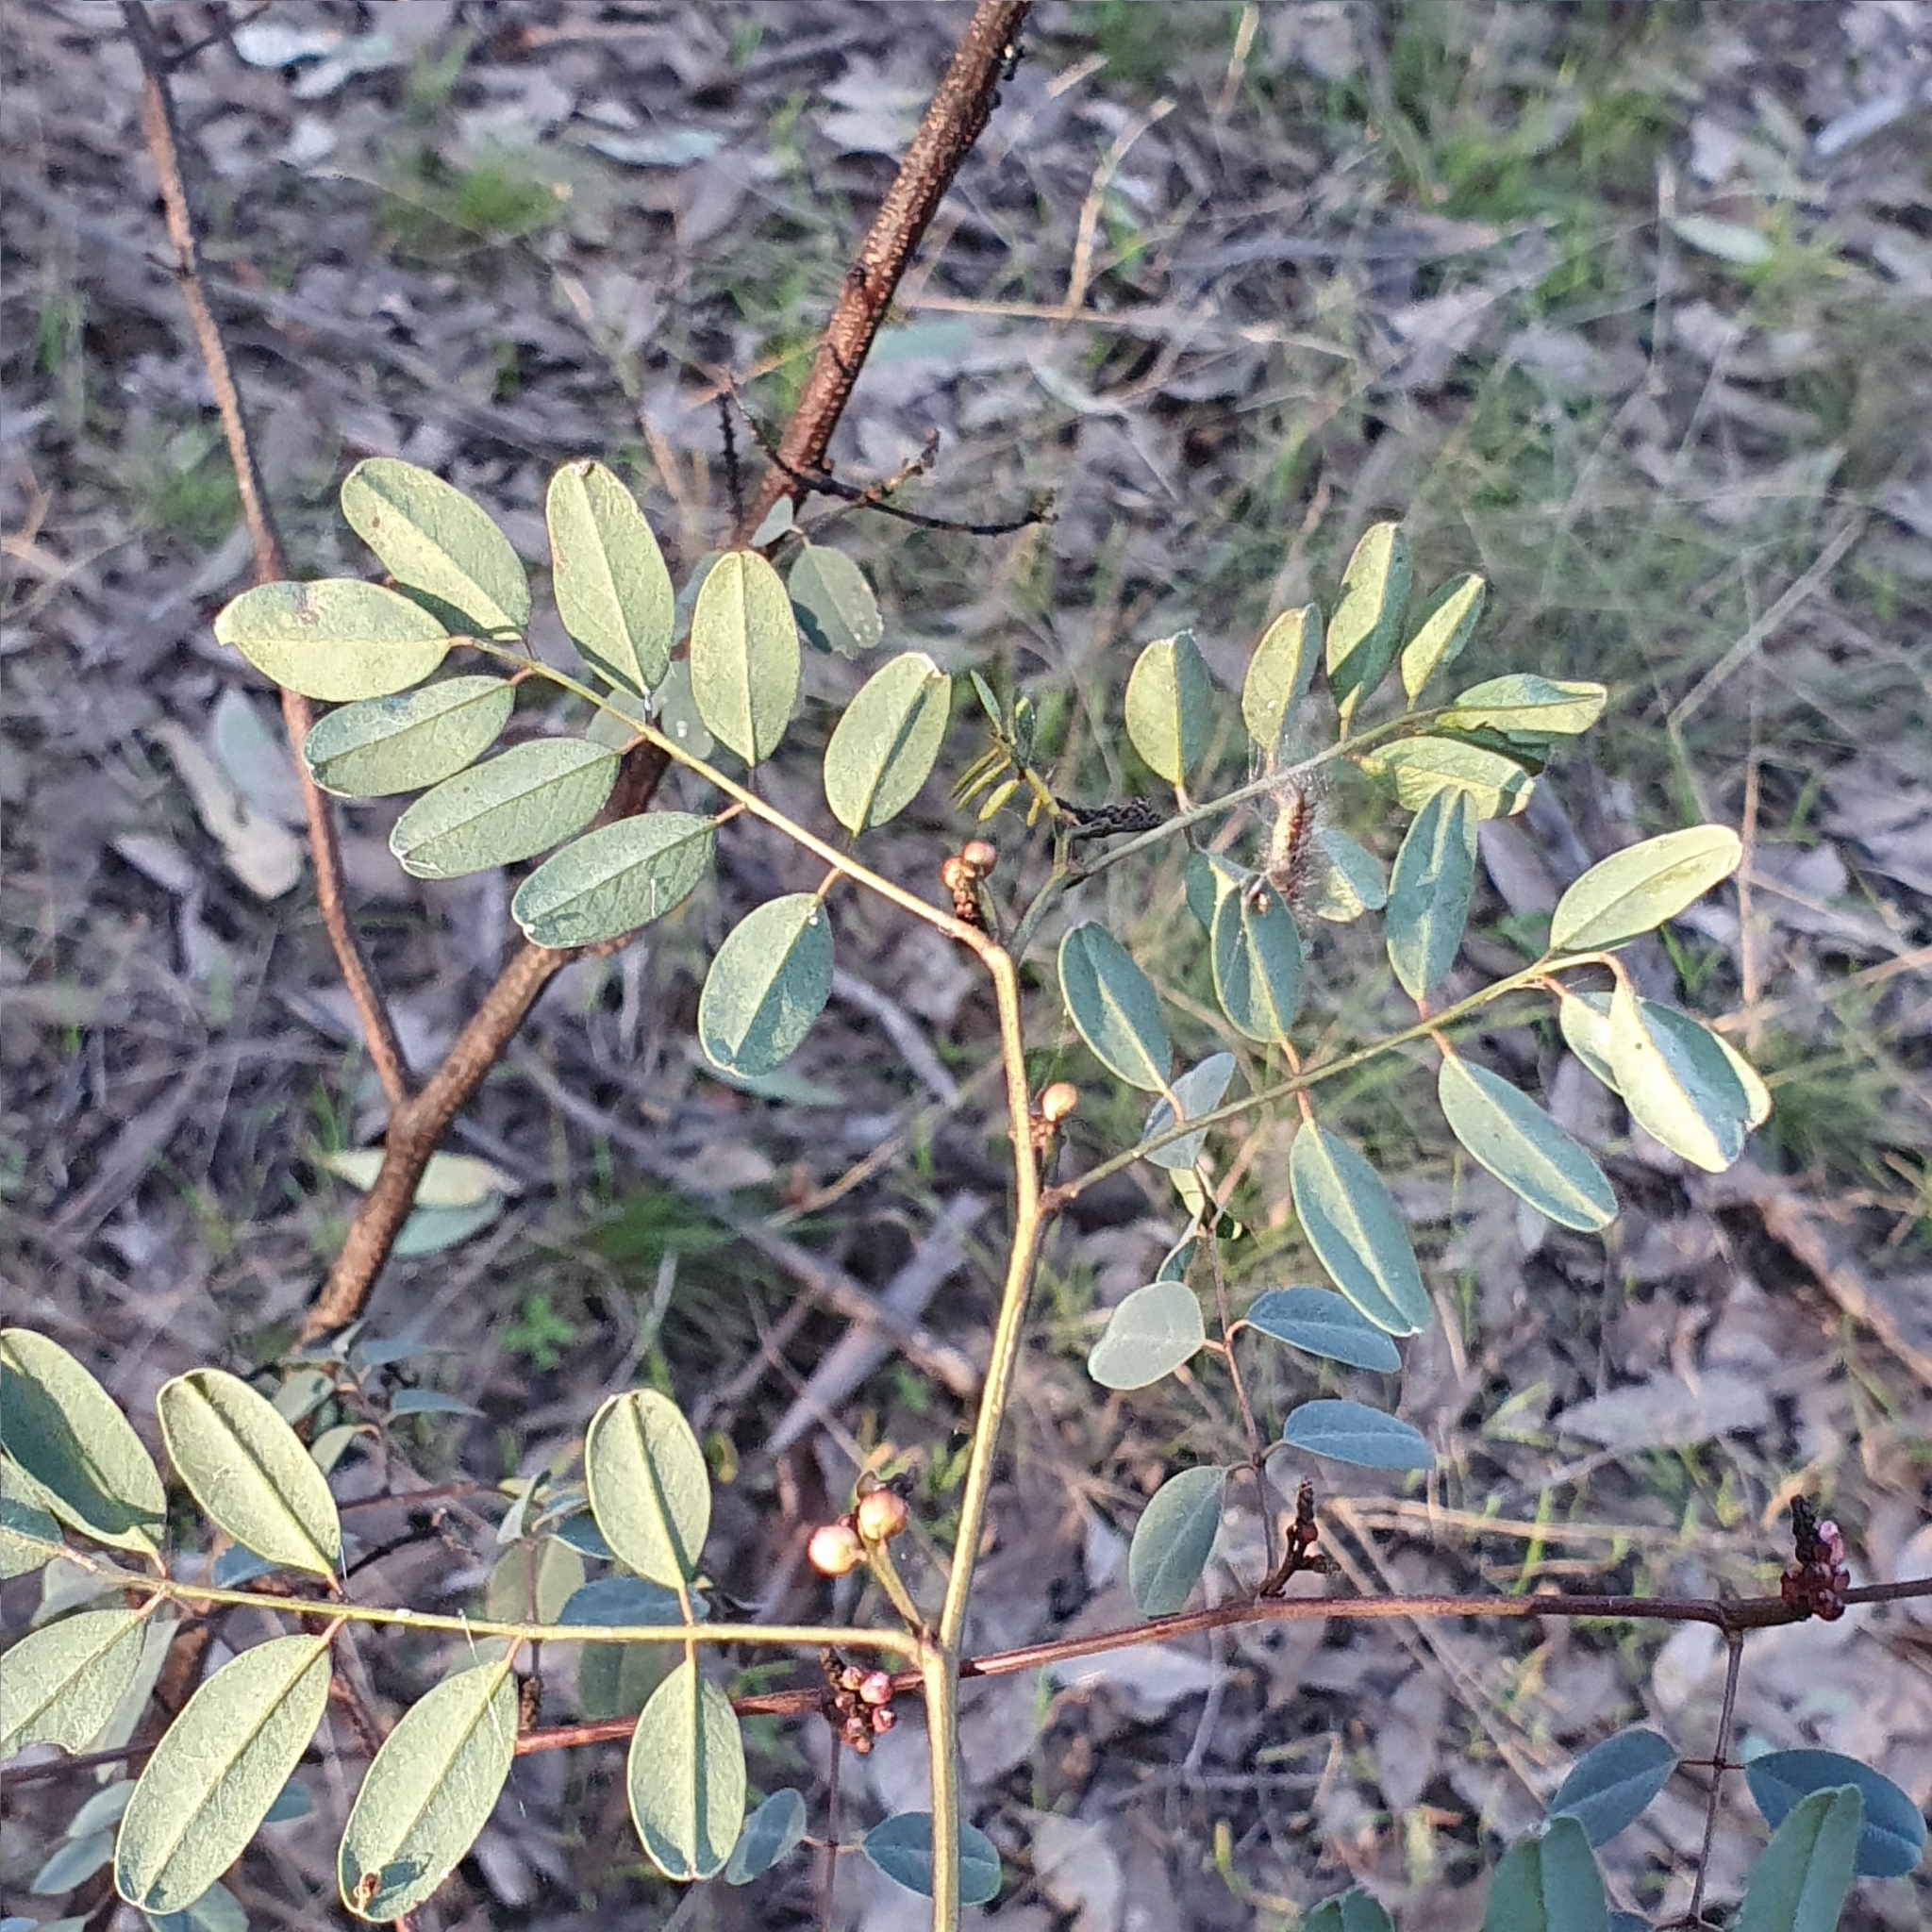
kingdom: Plantae
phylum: Tracheophyta
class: Magnoliopsida
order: Fabales
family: Fabaceae
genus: Indigofera
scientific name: Indigofera australis
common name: Australian indigo
